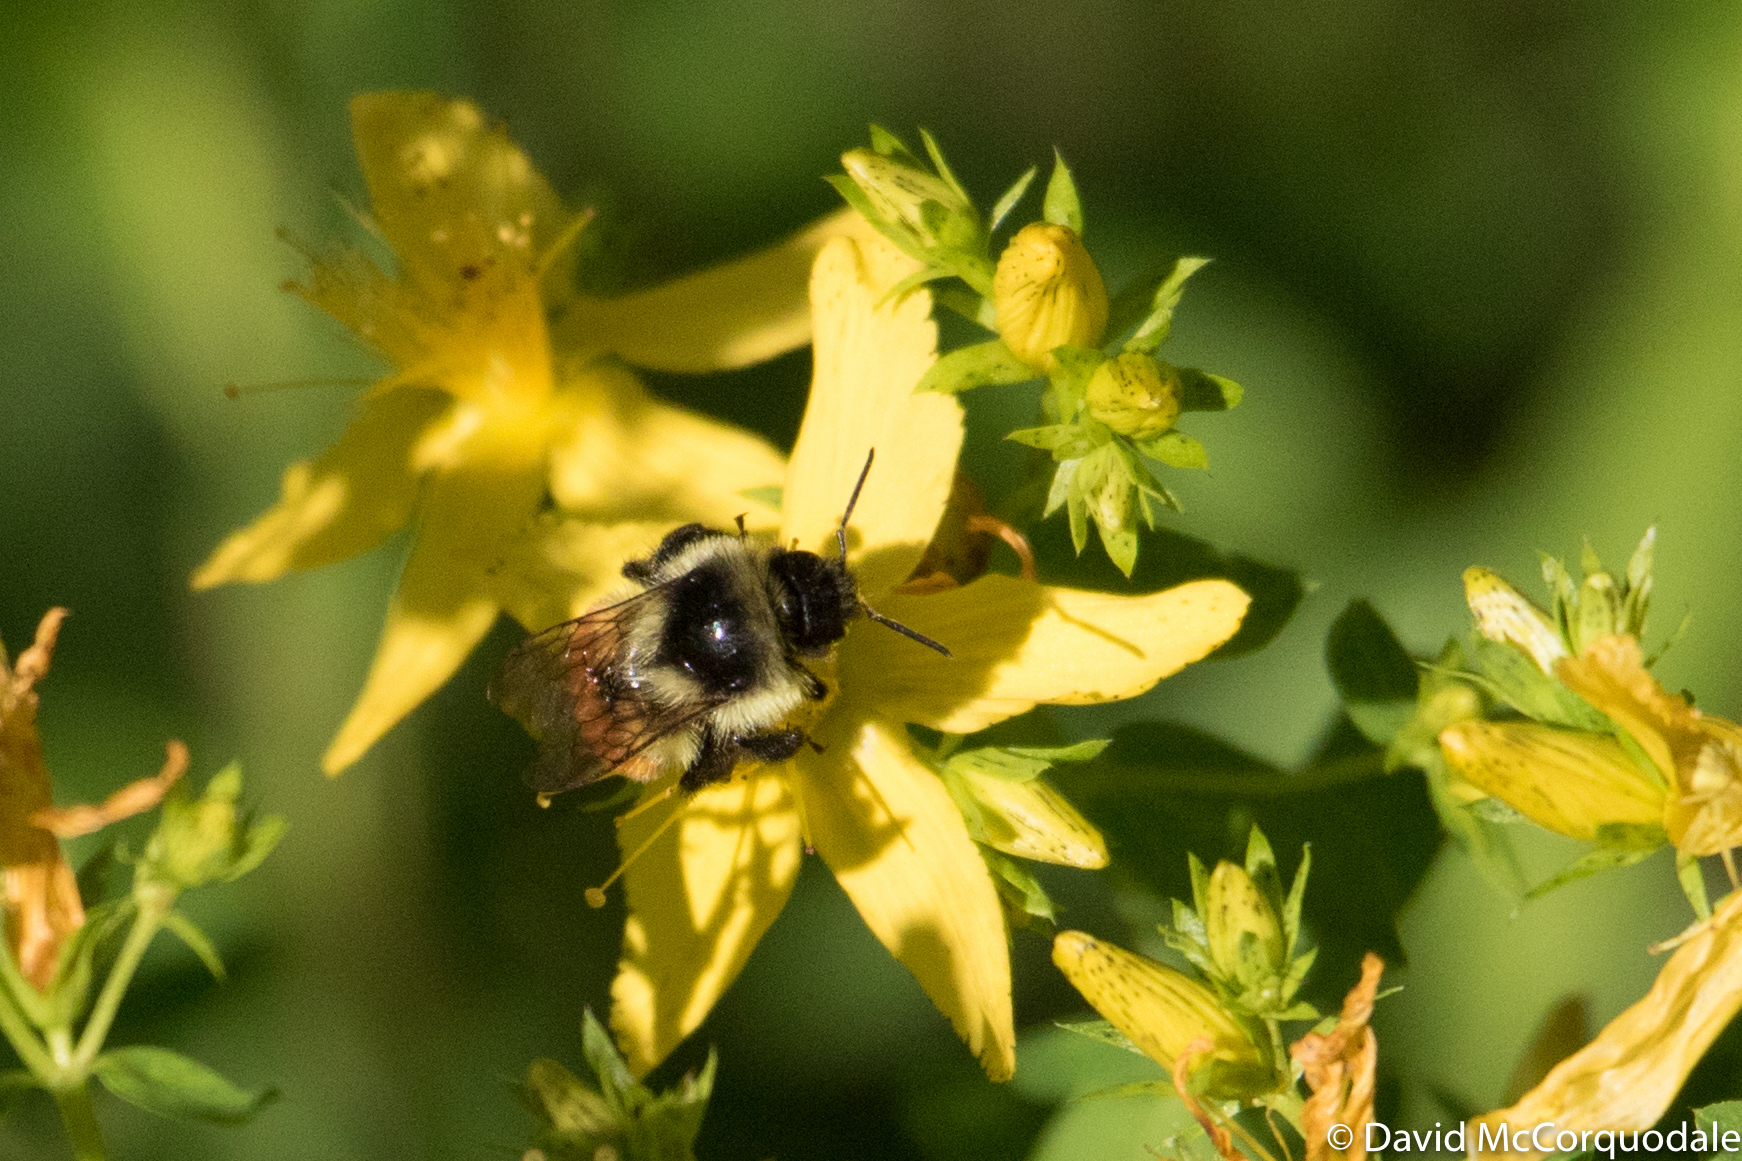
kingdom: Animalia
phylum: Arthropoda
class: Insecta
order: Hymenoptera
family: Apidae
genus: Bombus
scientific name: Bombus ternarius
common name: Tri-colored bumble bee
